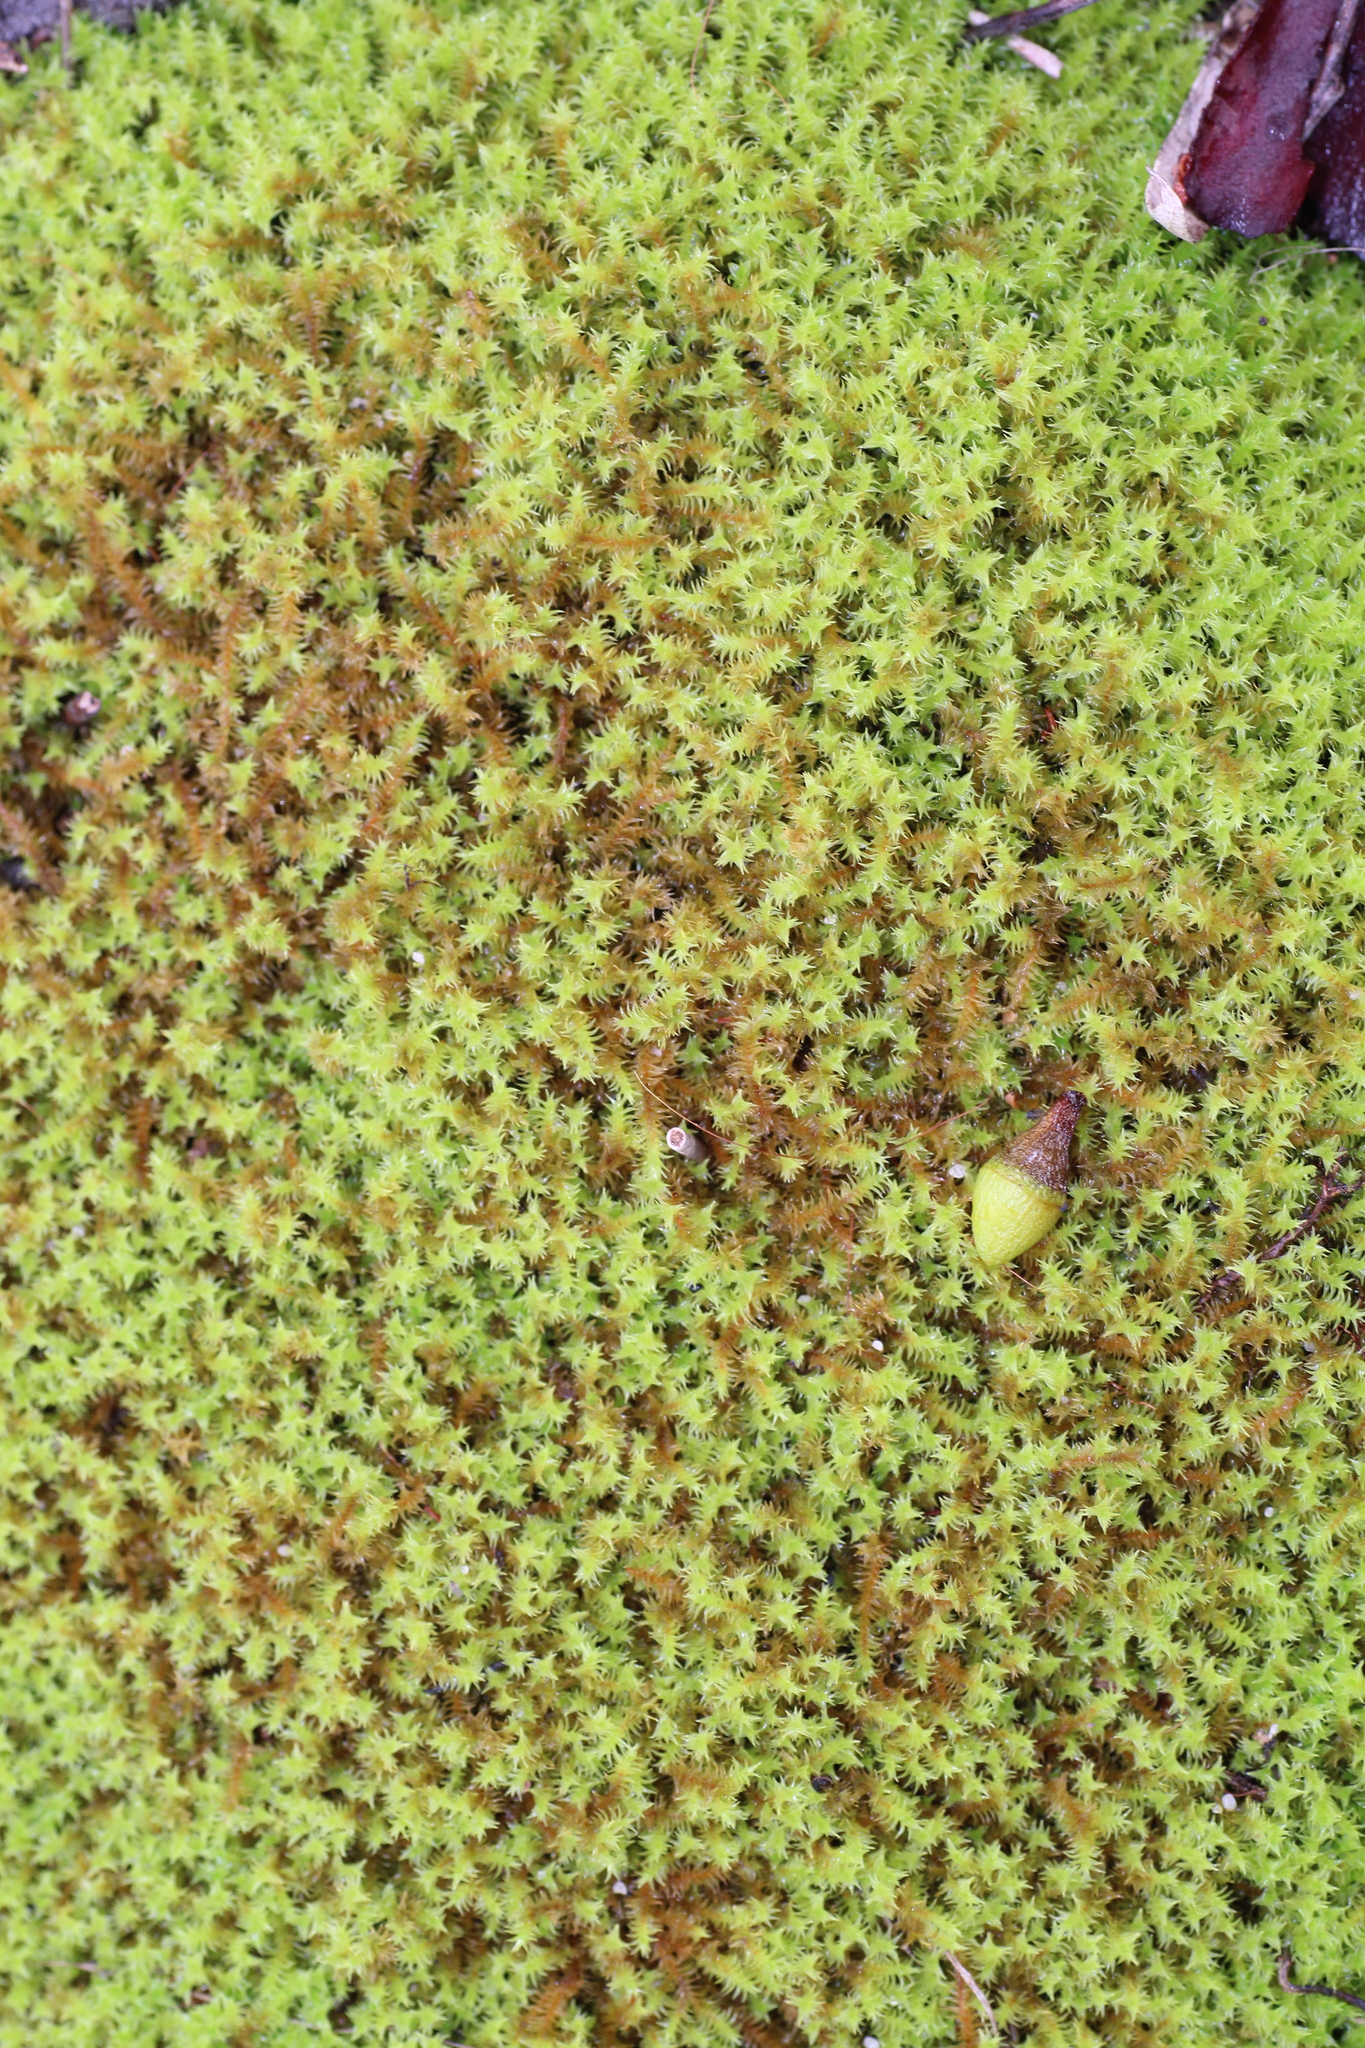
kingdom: Plantae
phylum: Bryophyta
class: Bryopsida
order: Pottiales
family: Pottiaceae
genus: Triquetrella
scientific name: Triquetrella papillata
